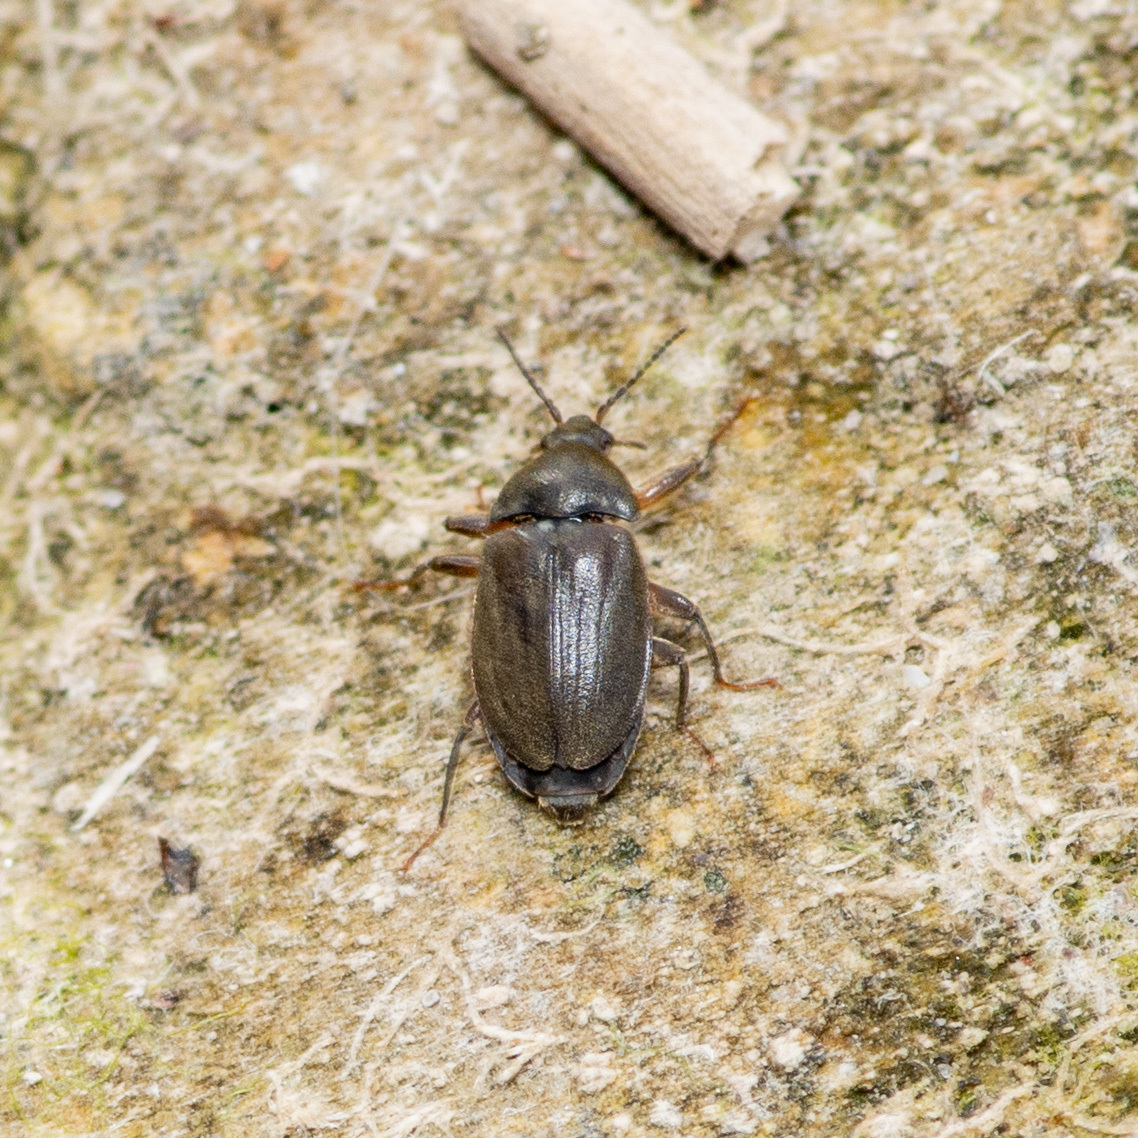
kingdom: Animalia
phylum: Arthropoda
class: Insecta
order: Coleoptera
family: Psephenidae
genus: Psephenus
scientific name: Psephenus texanus
